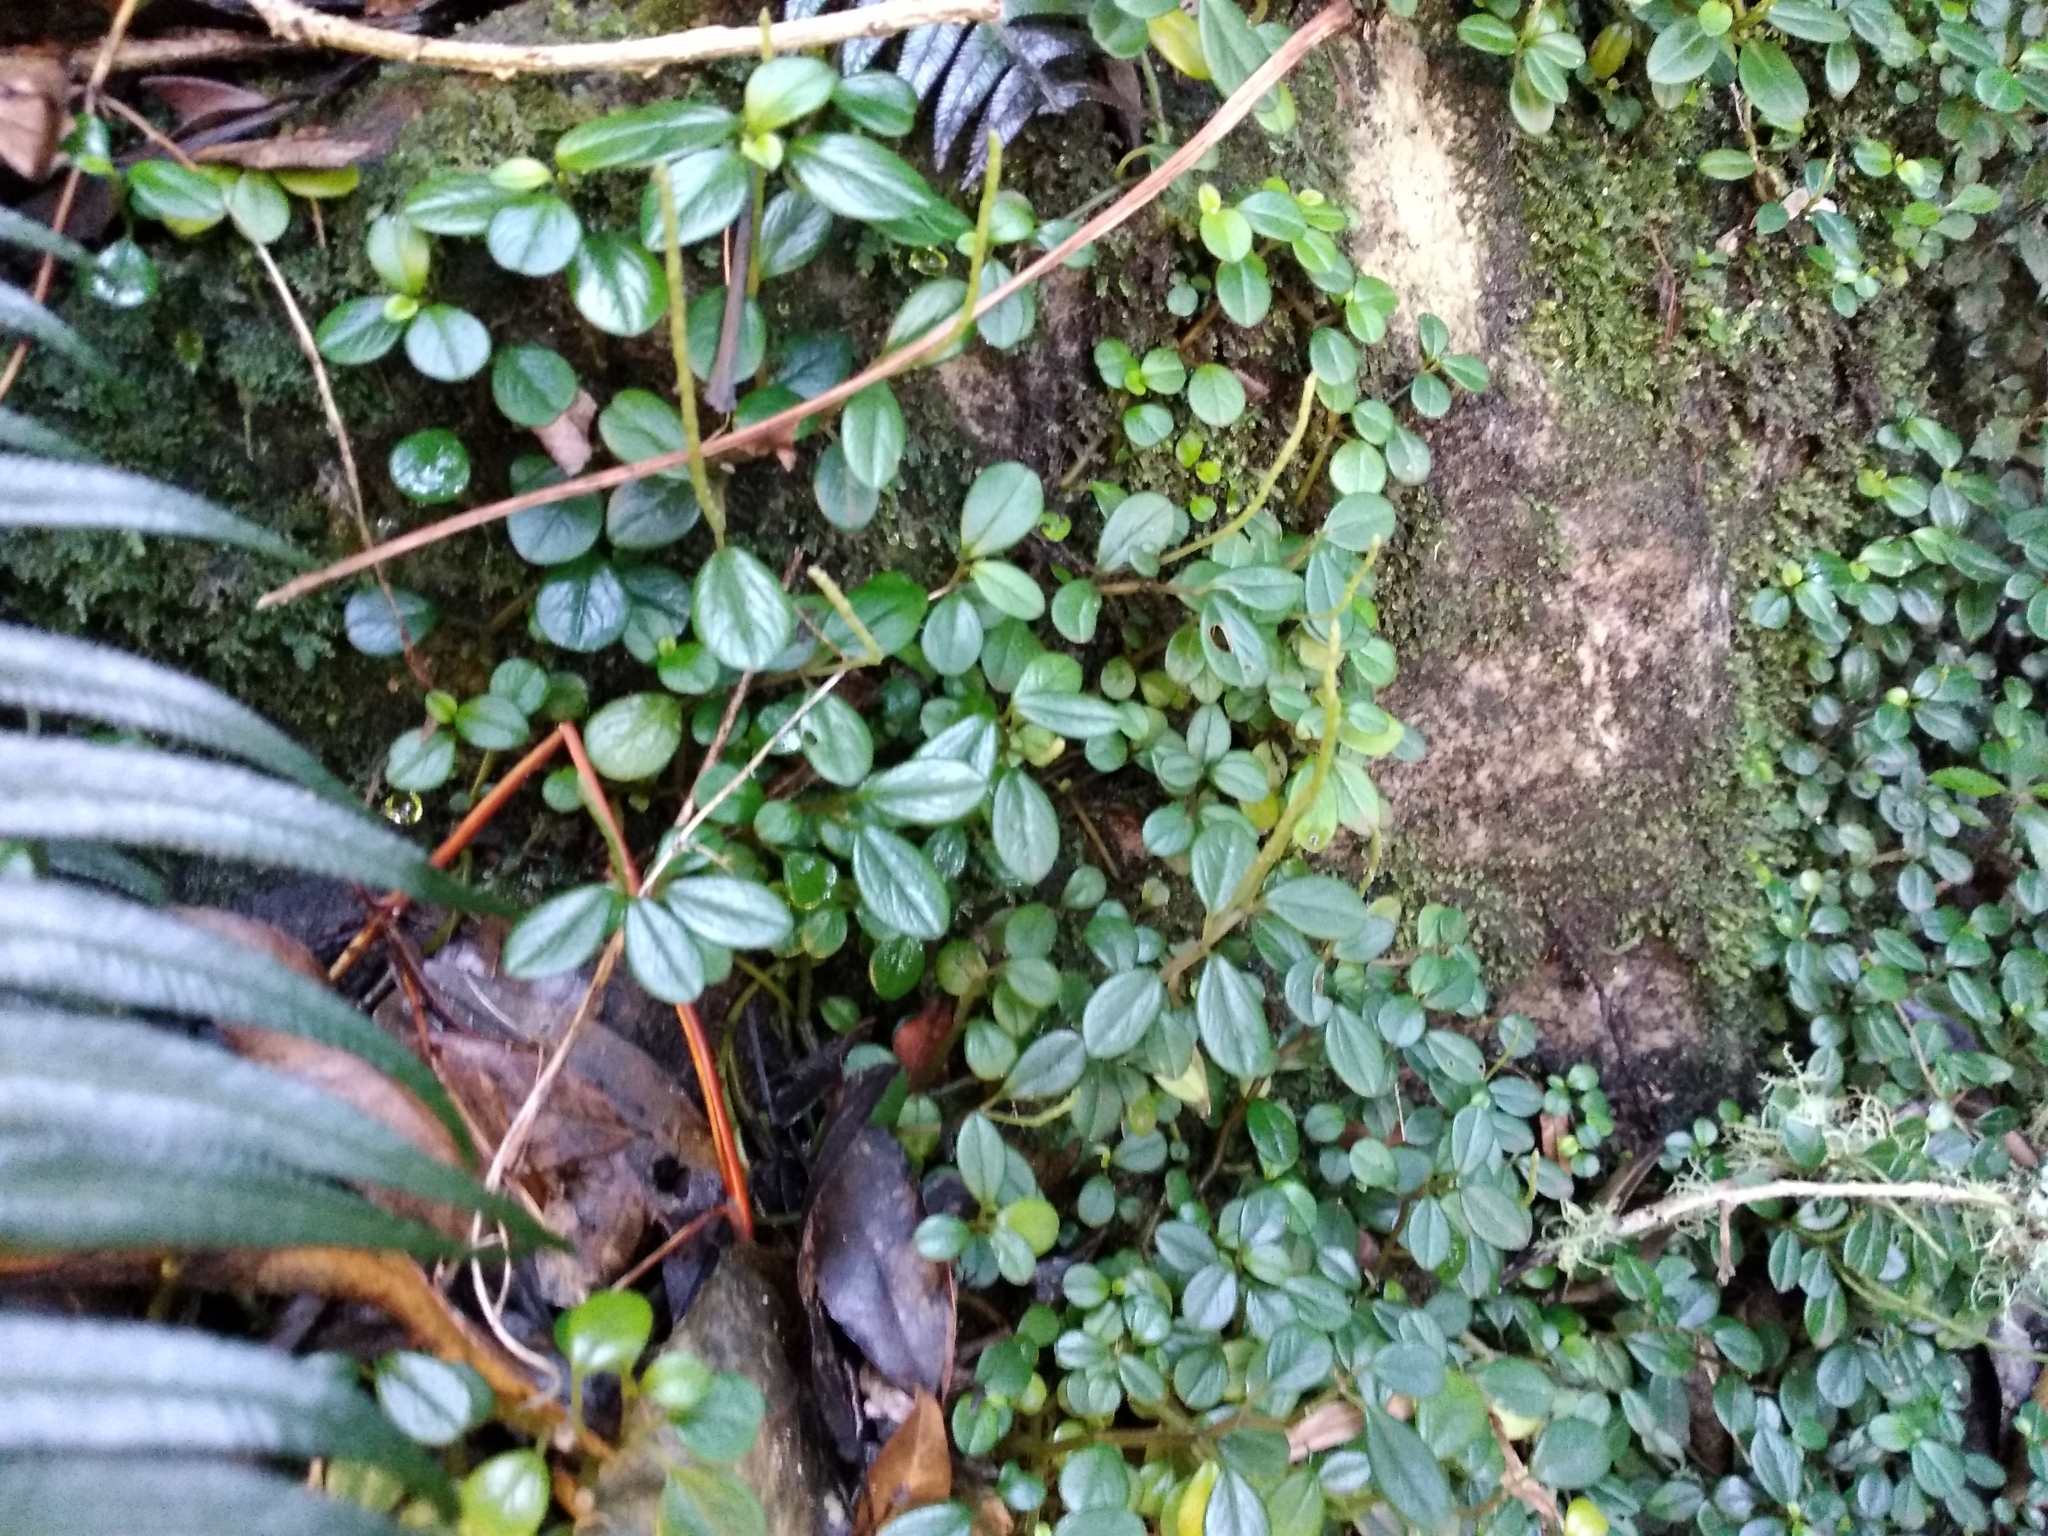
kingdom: Plantae
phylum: Tracheophyta
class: Magnoliopsida
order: Piperales
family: Piperaceae
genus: Peperomia
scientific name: Peperomia retusa
